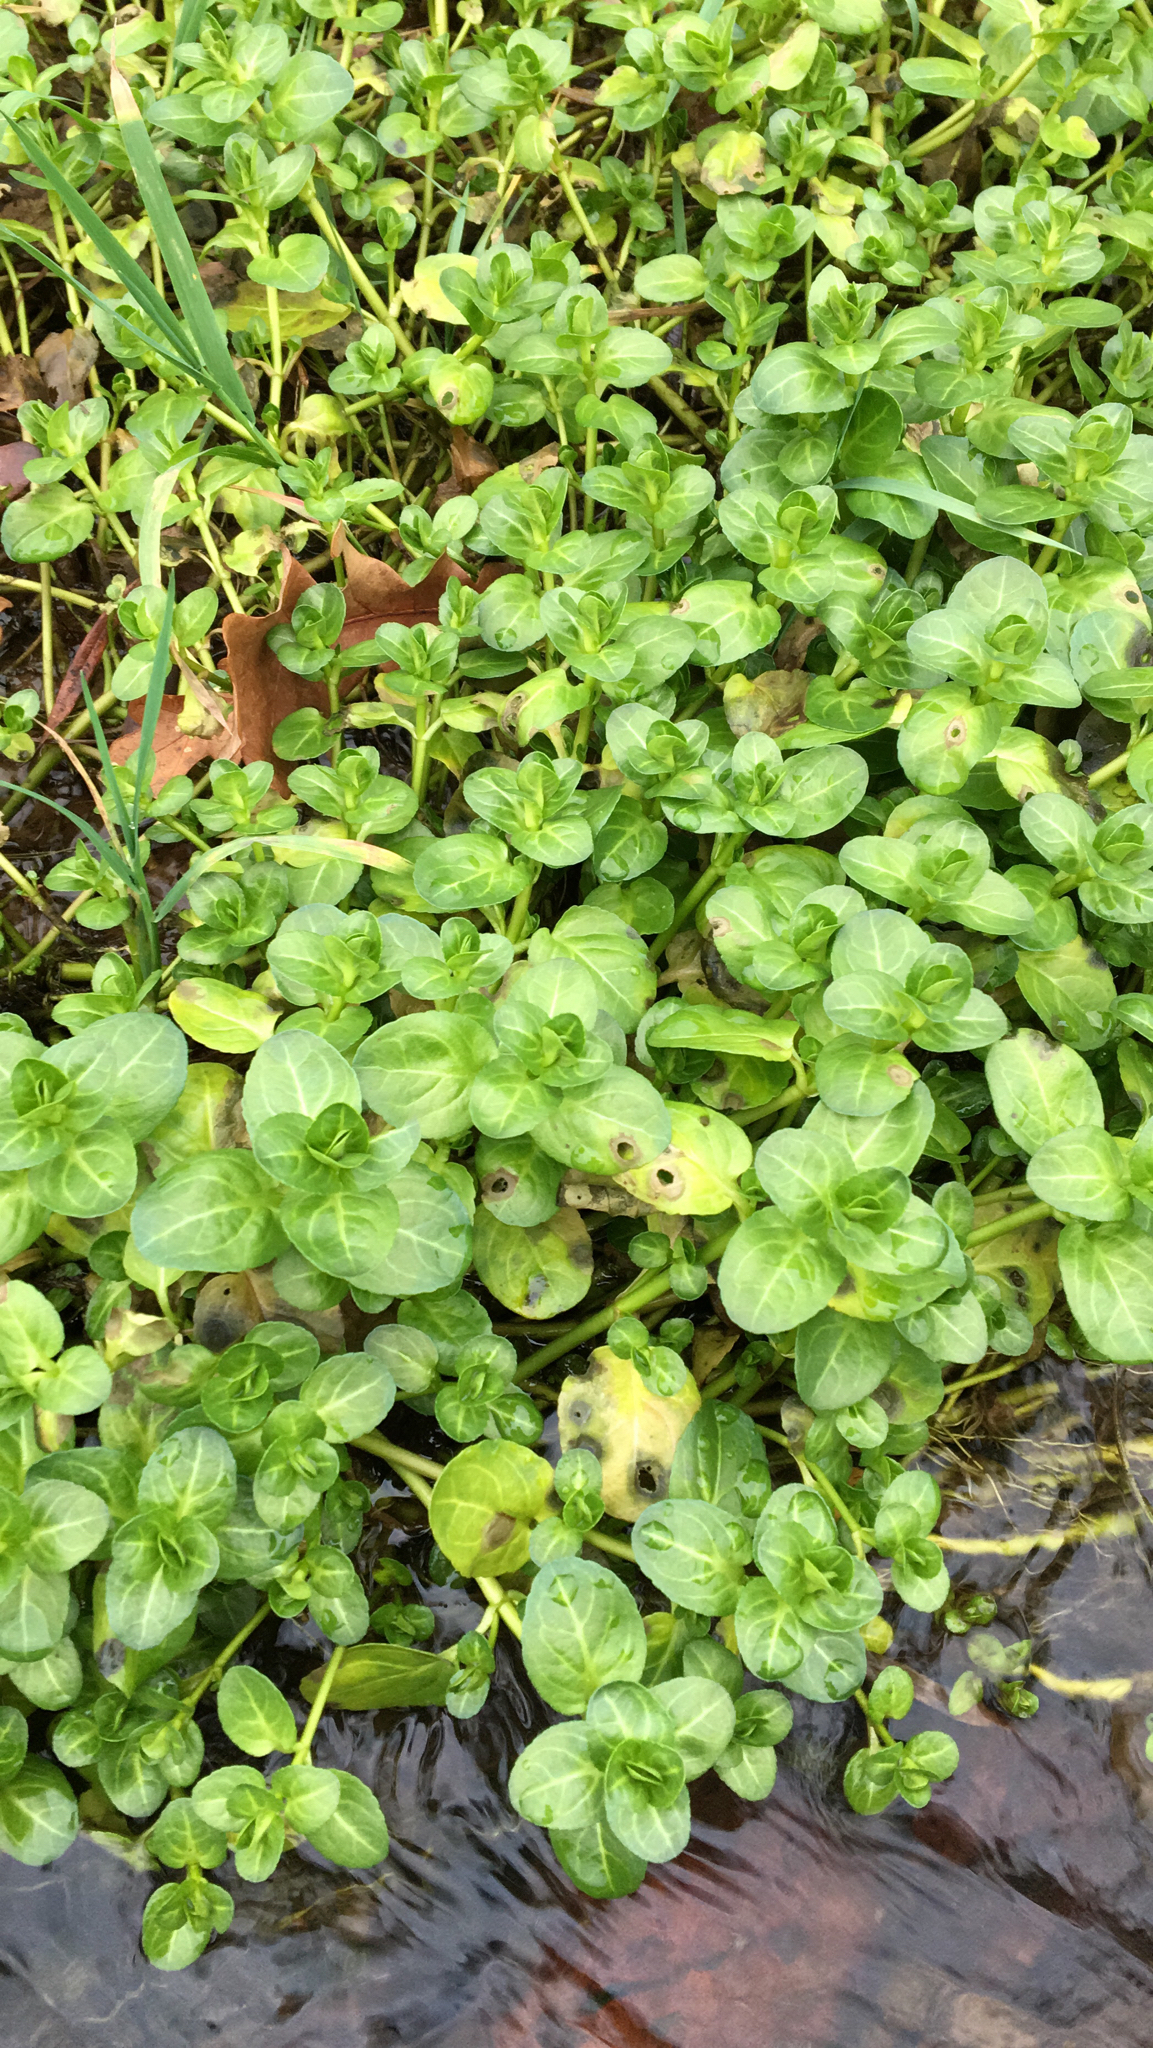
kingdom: Plantae
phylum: Tracheophyta
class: Magnoliopsida
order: Lamiales
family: Plantaginaceae
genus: Veronica
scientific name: Veronica beccabunga
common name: Brooklime
